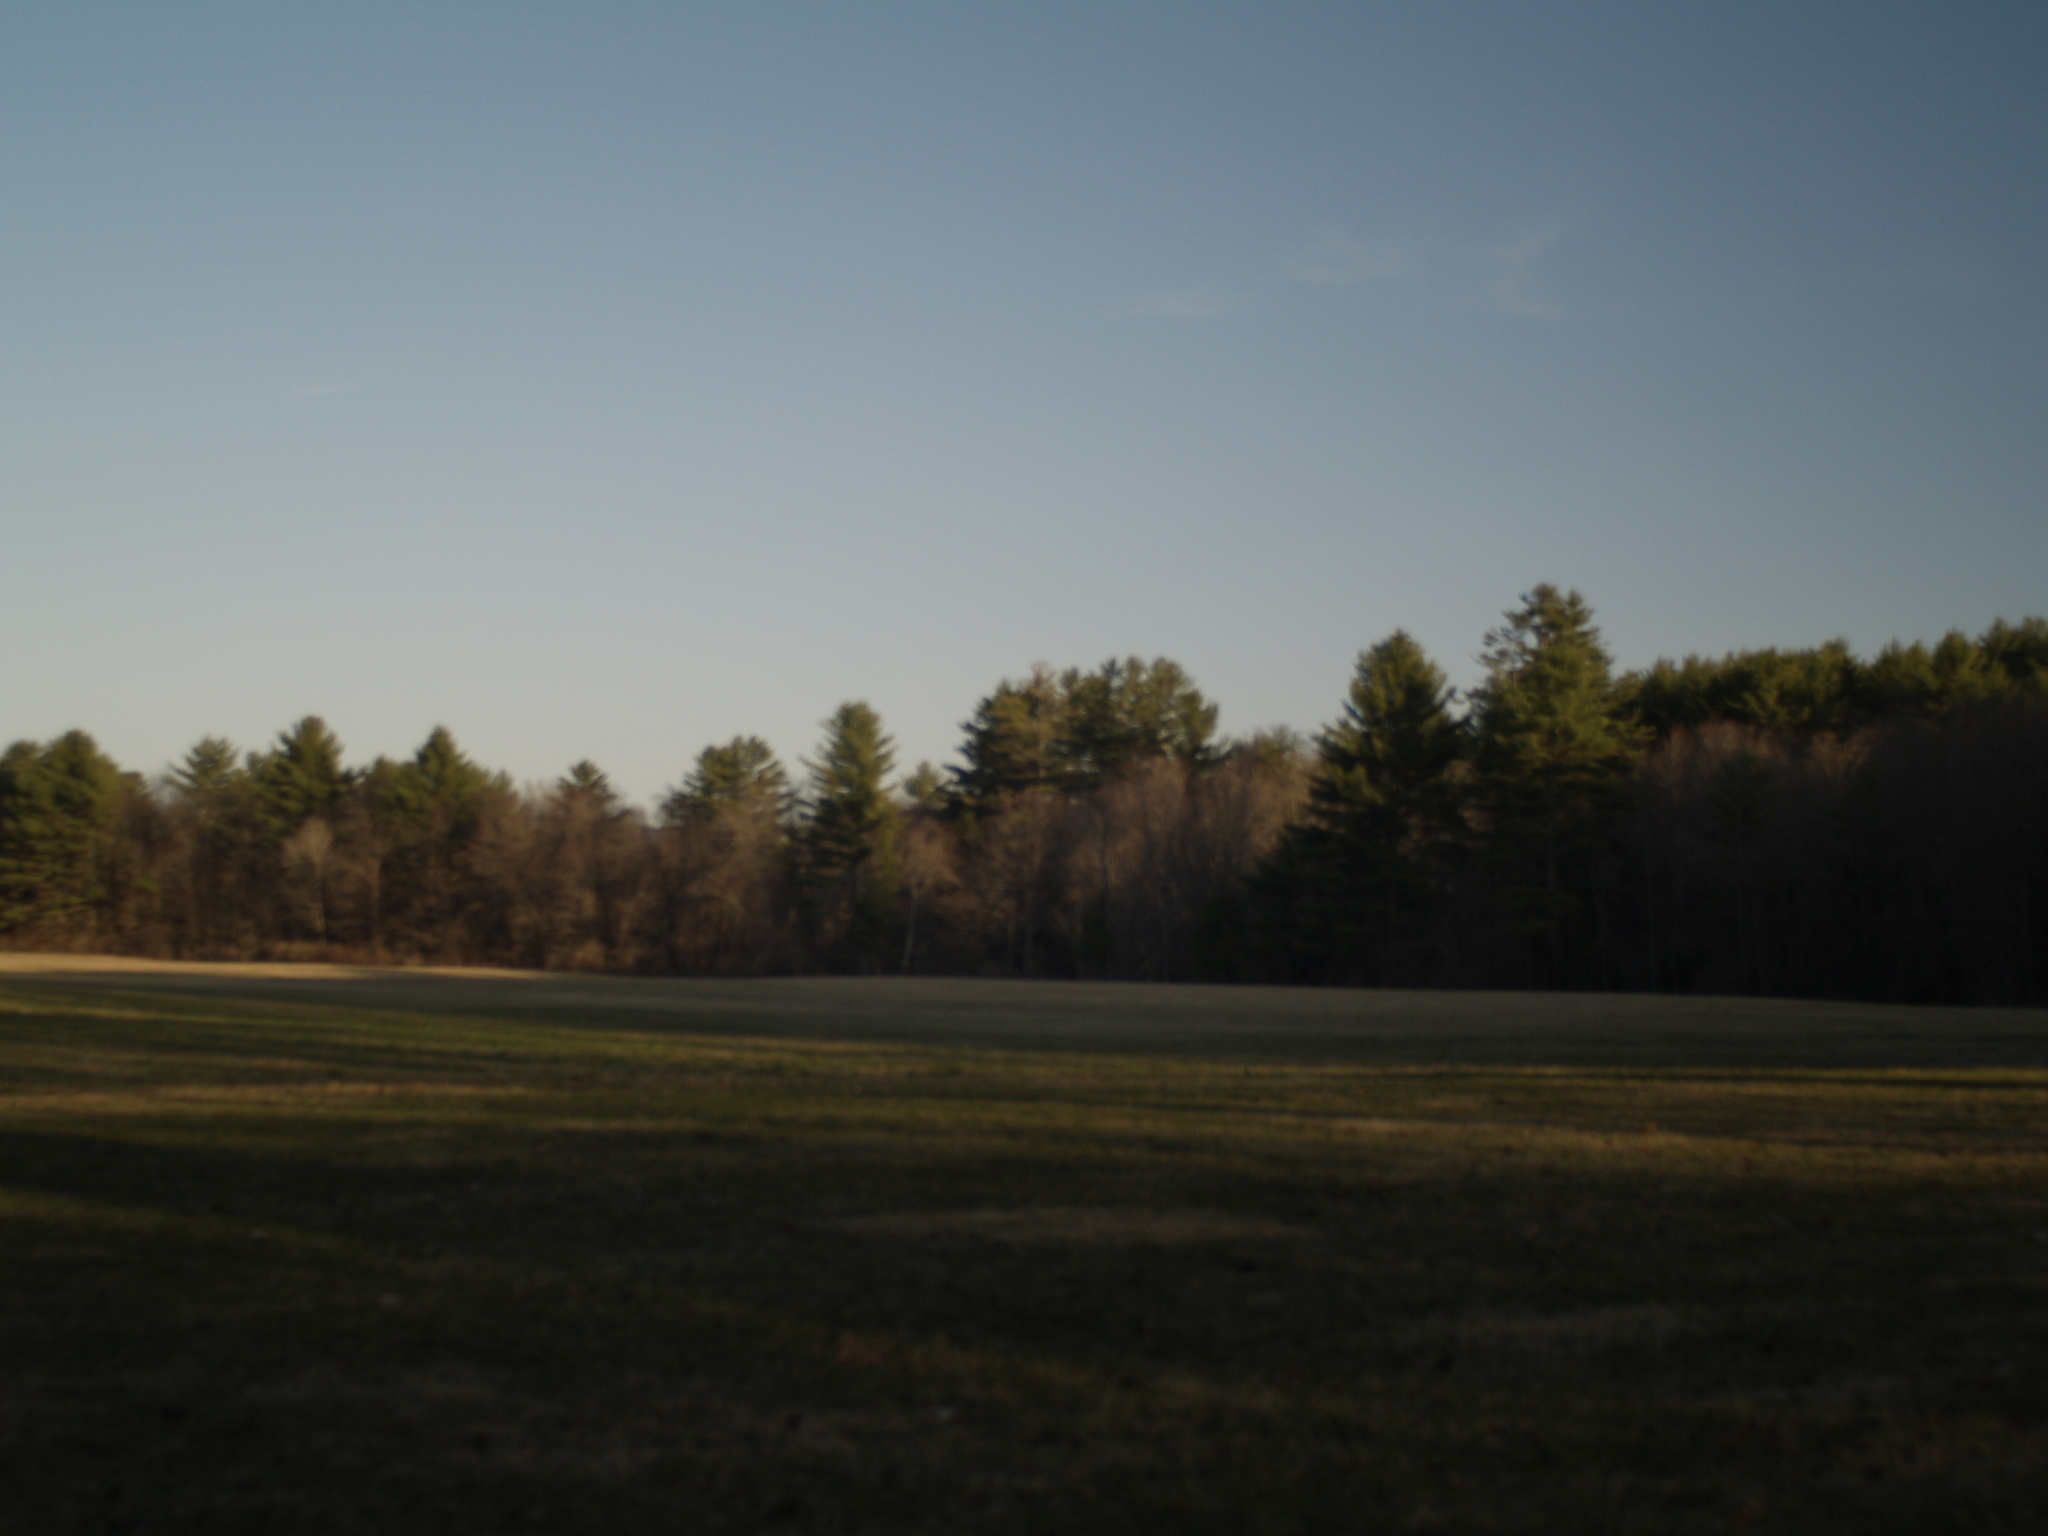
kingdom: Plantae
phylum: Tracheophyta
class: Pinopsida
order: Pinales
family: Pinaceae
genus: Pinus
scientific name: Pinus strobus
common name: Weymouth pine
